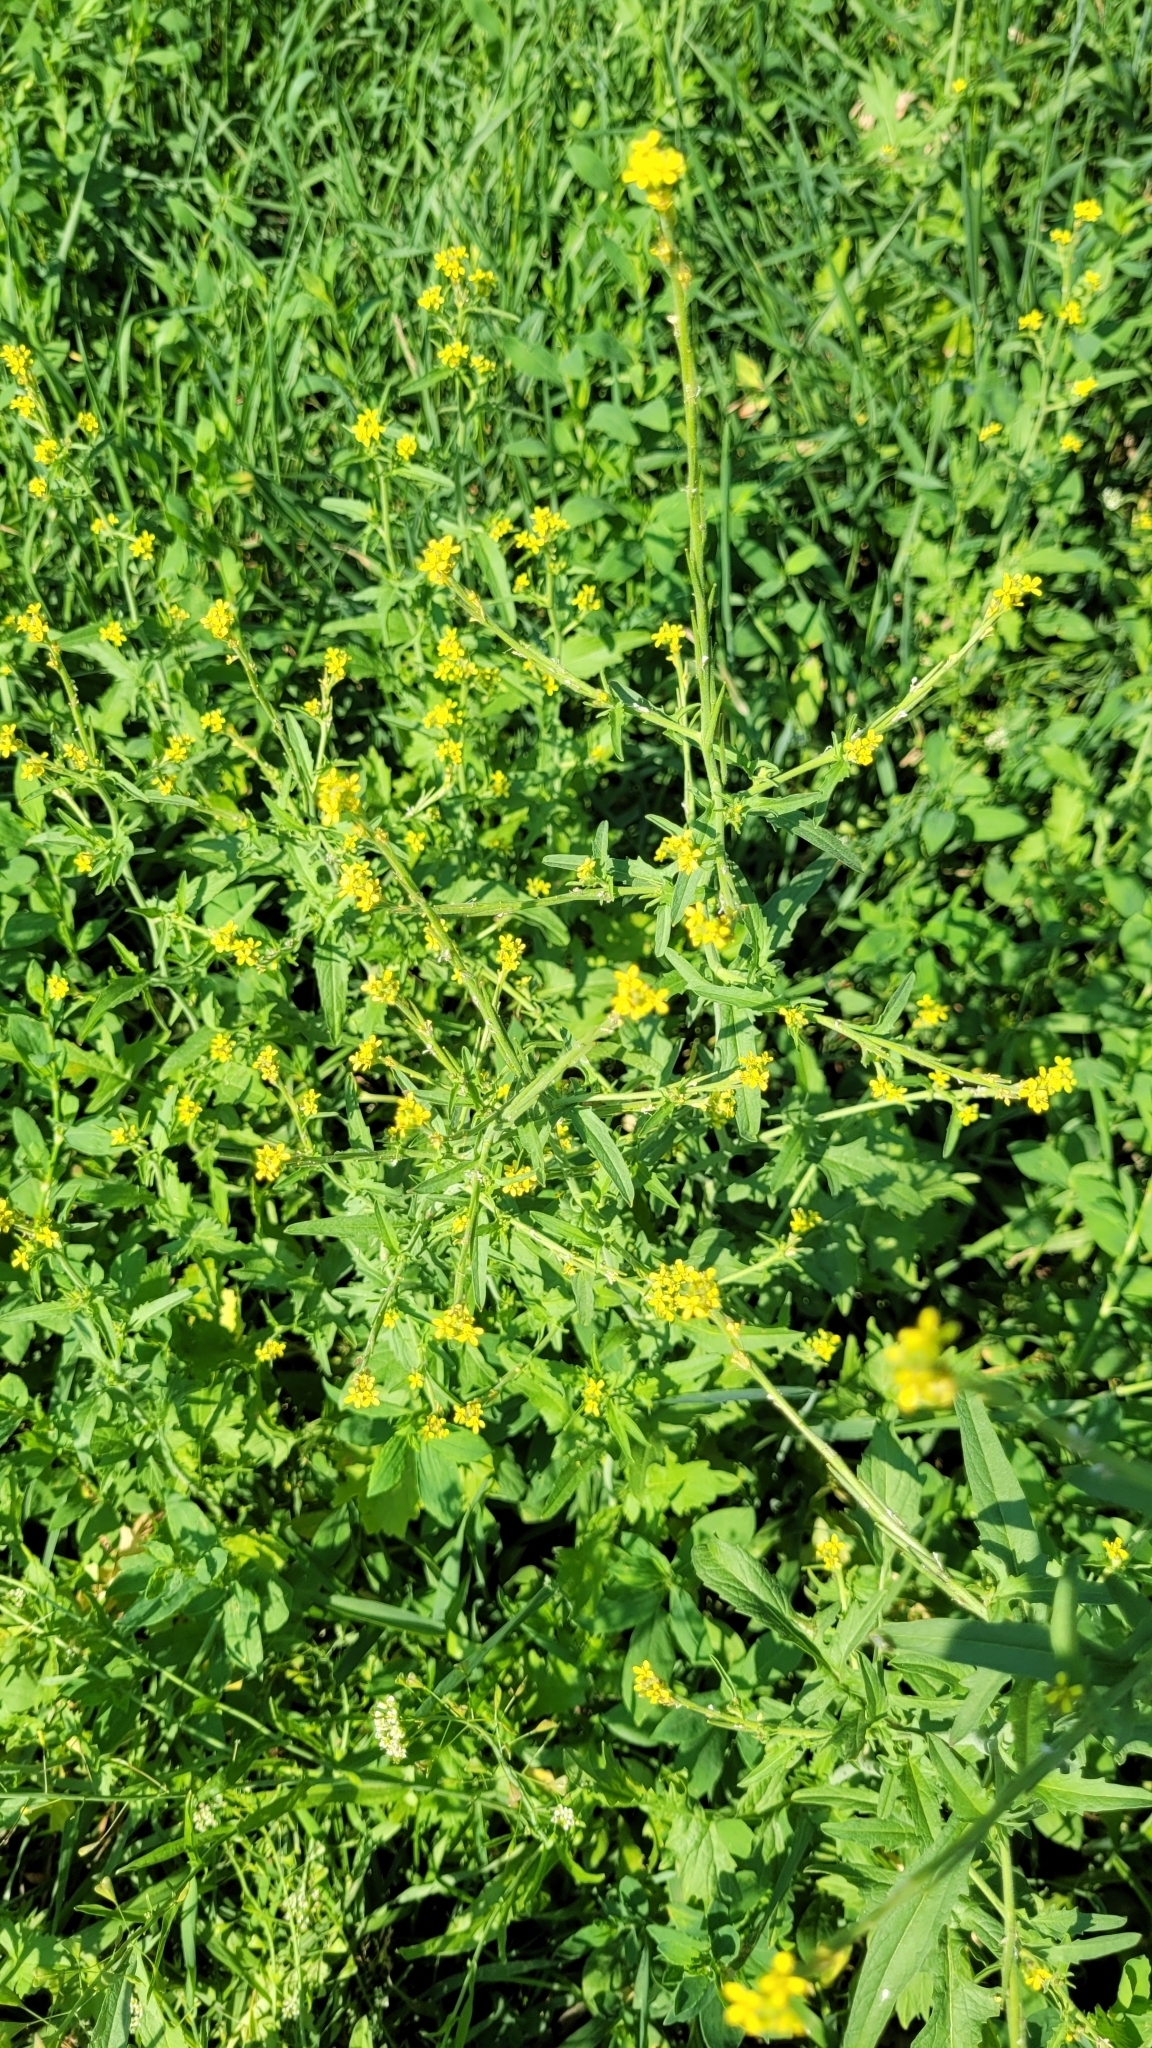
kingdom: Plantae
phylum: Tracheophyta
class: Magnoliopsida
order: Brassicales
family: Brassicaceae
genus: Sisymbrium
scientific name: Sisymbrium officinale
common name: Hedge mustard
